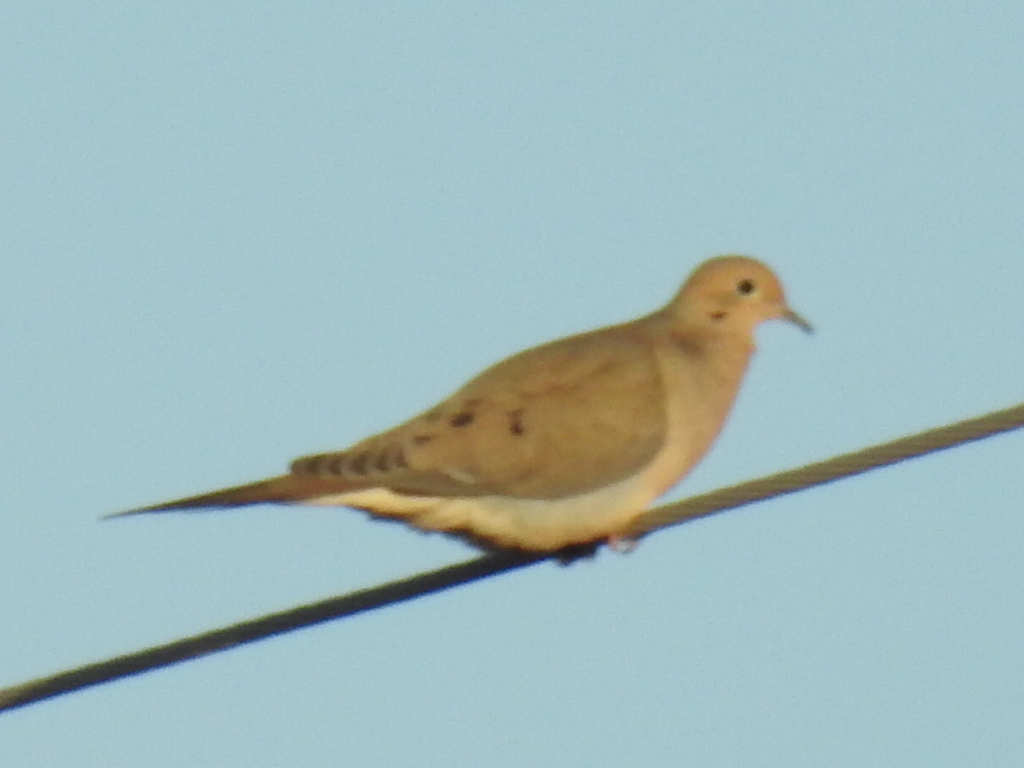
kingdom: Animalia
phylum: Chordata
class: Aves
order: Columbiformes
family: Columbidae
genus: Zenaida
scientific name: Zenaida macroura
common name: Mourning dove
